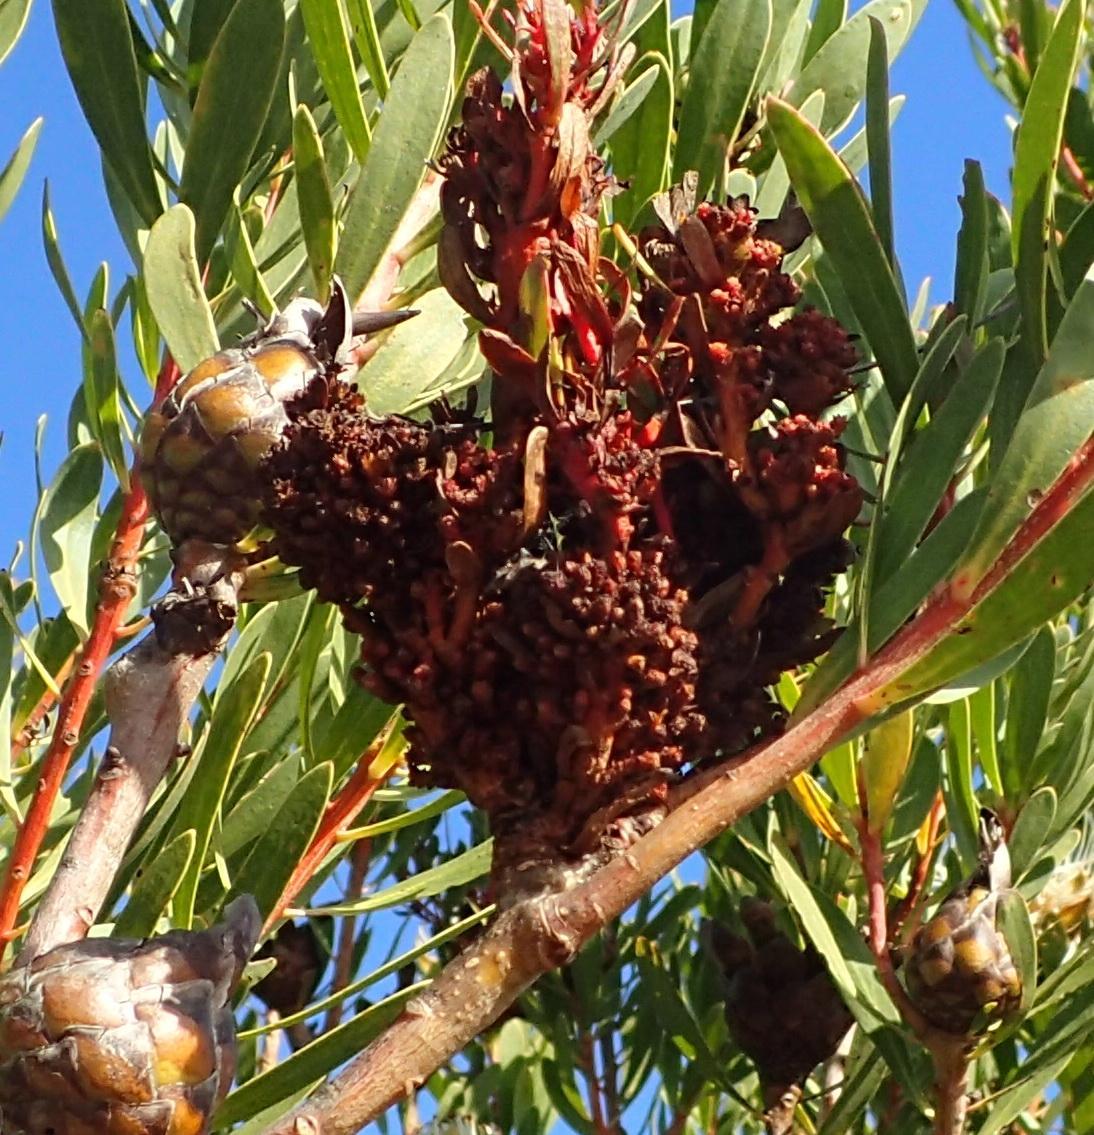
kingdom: Bacteria
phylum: Firmicutes
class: Bacilli
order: Acholeplasmatales
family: Acholeplasmataceae
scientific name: Acholeplasmataceae
